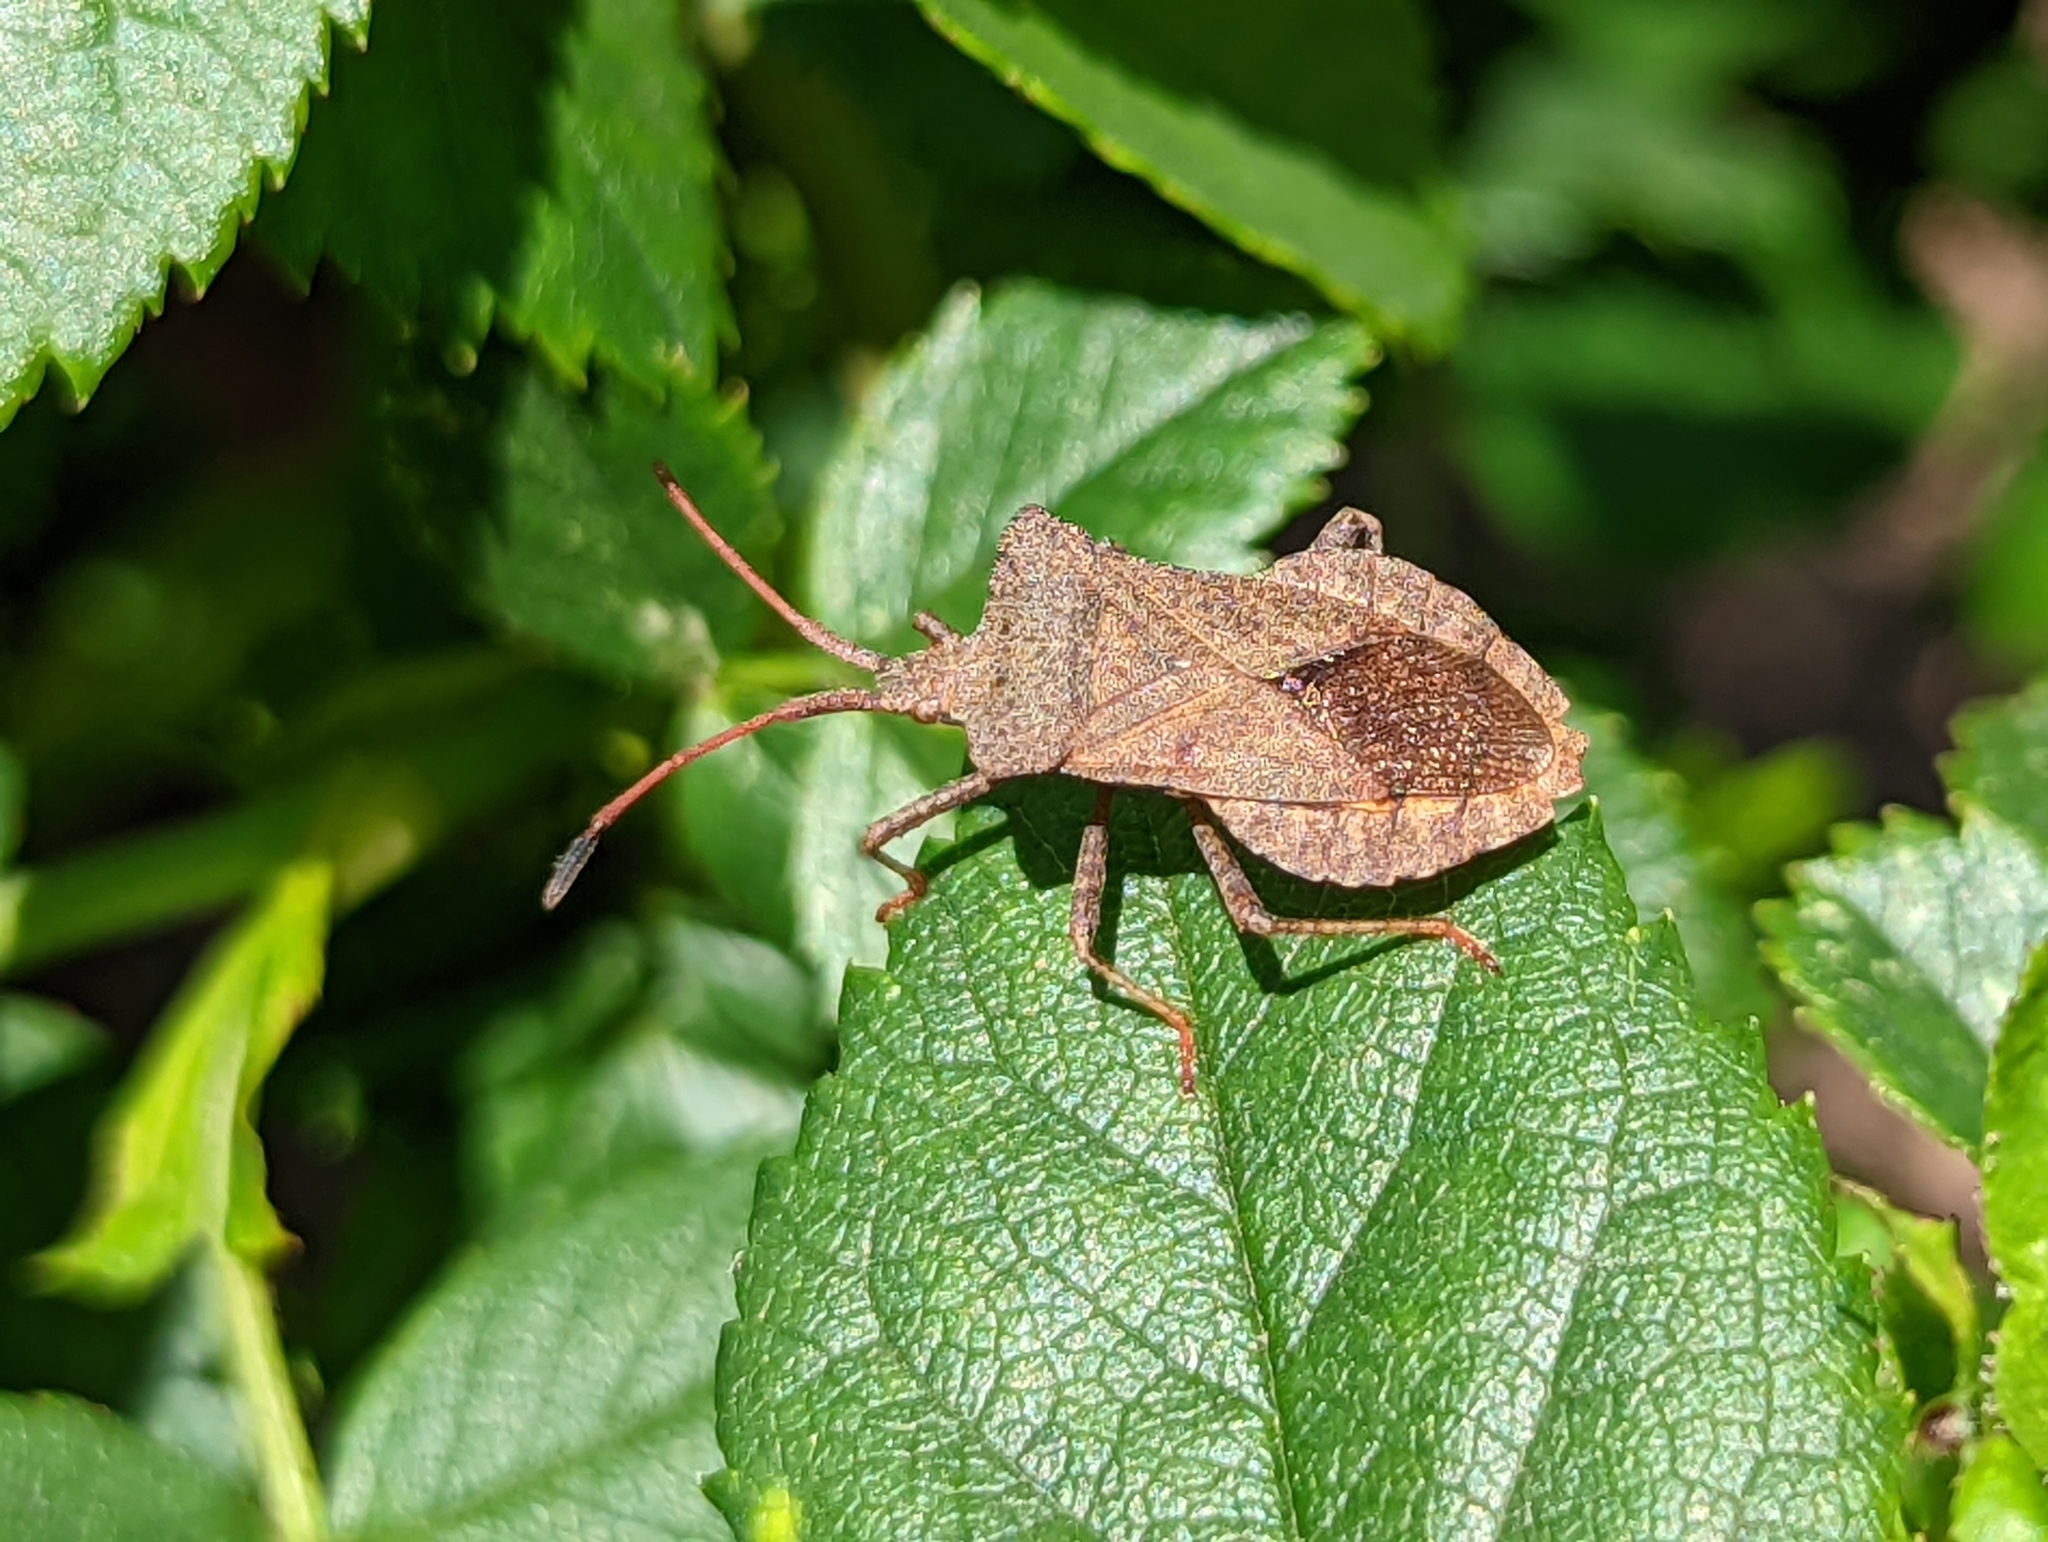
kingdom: Animalia
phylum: Arthropoda
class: Insecta
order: Hemiptera
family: Coreidae
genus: Coreus
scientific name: Coreus marginatus
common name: Dock bug
